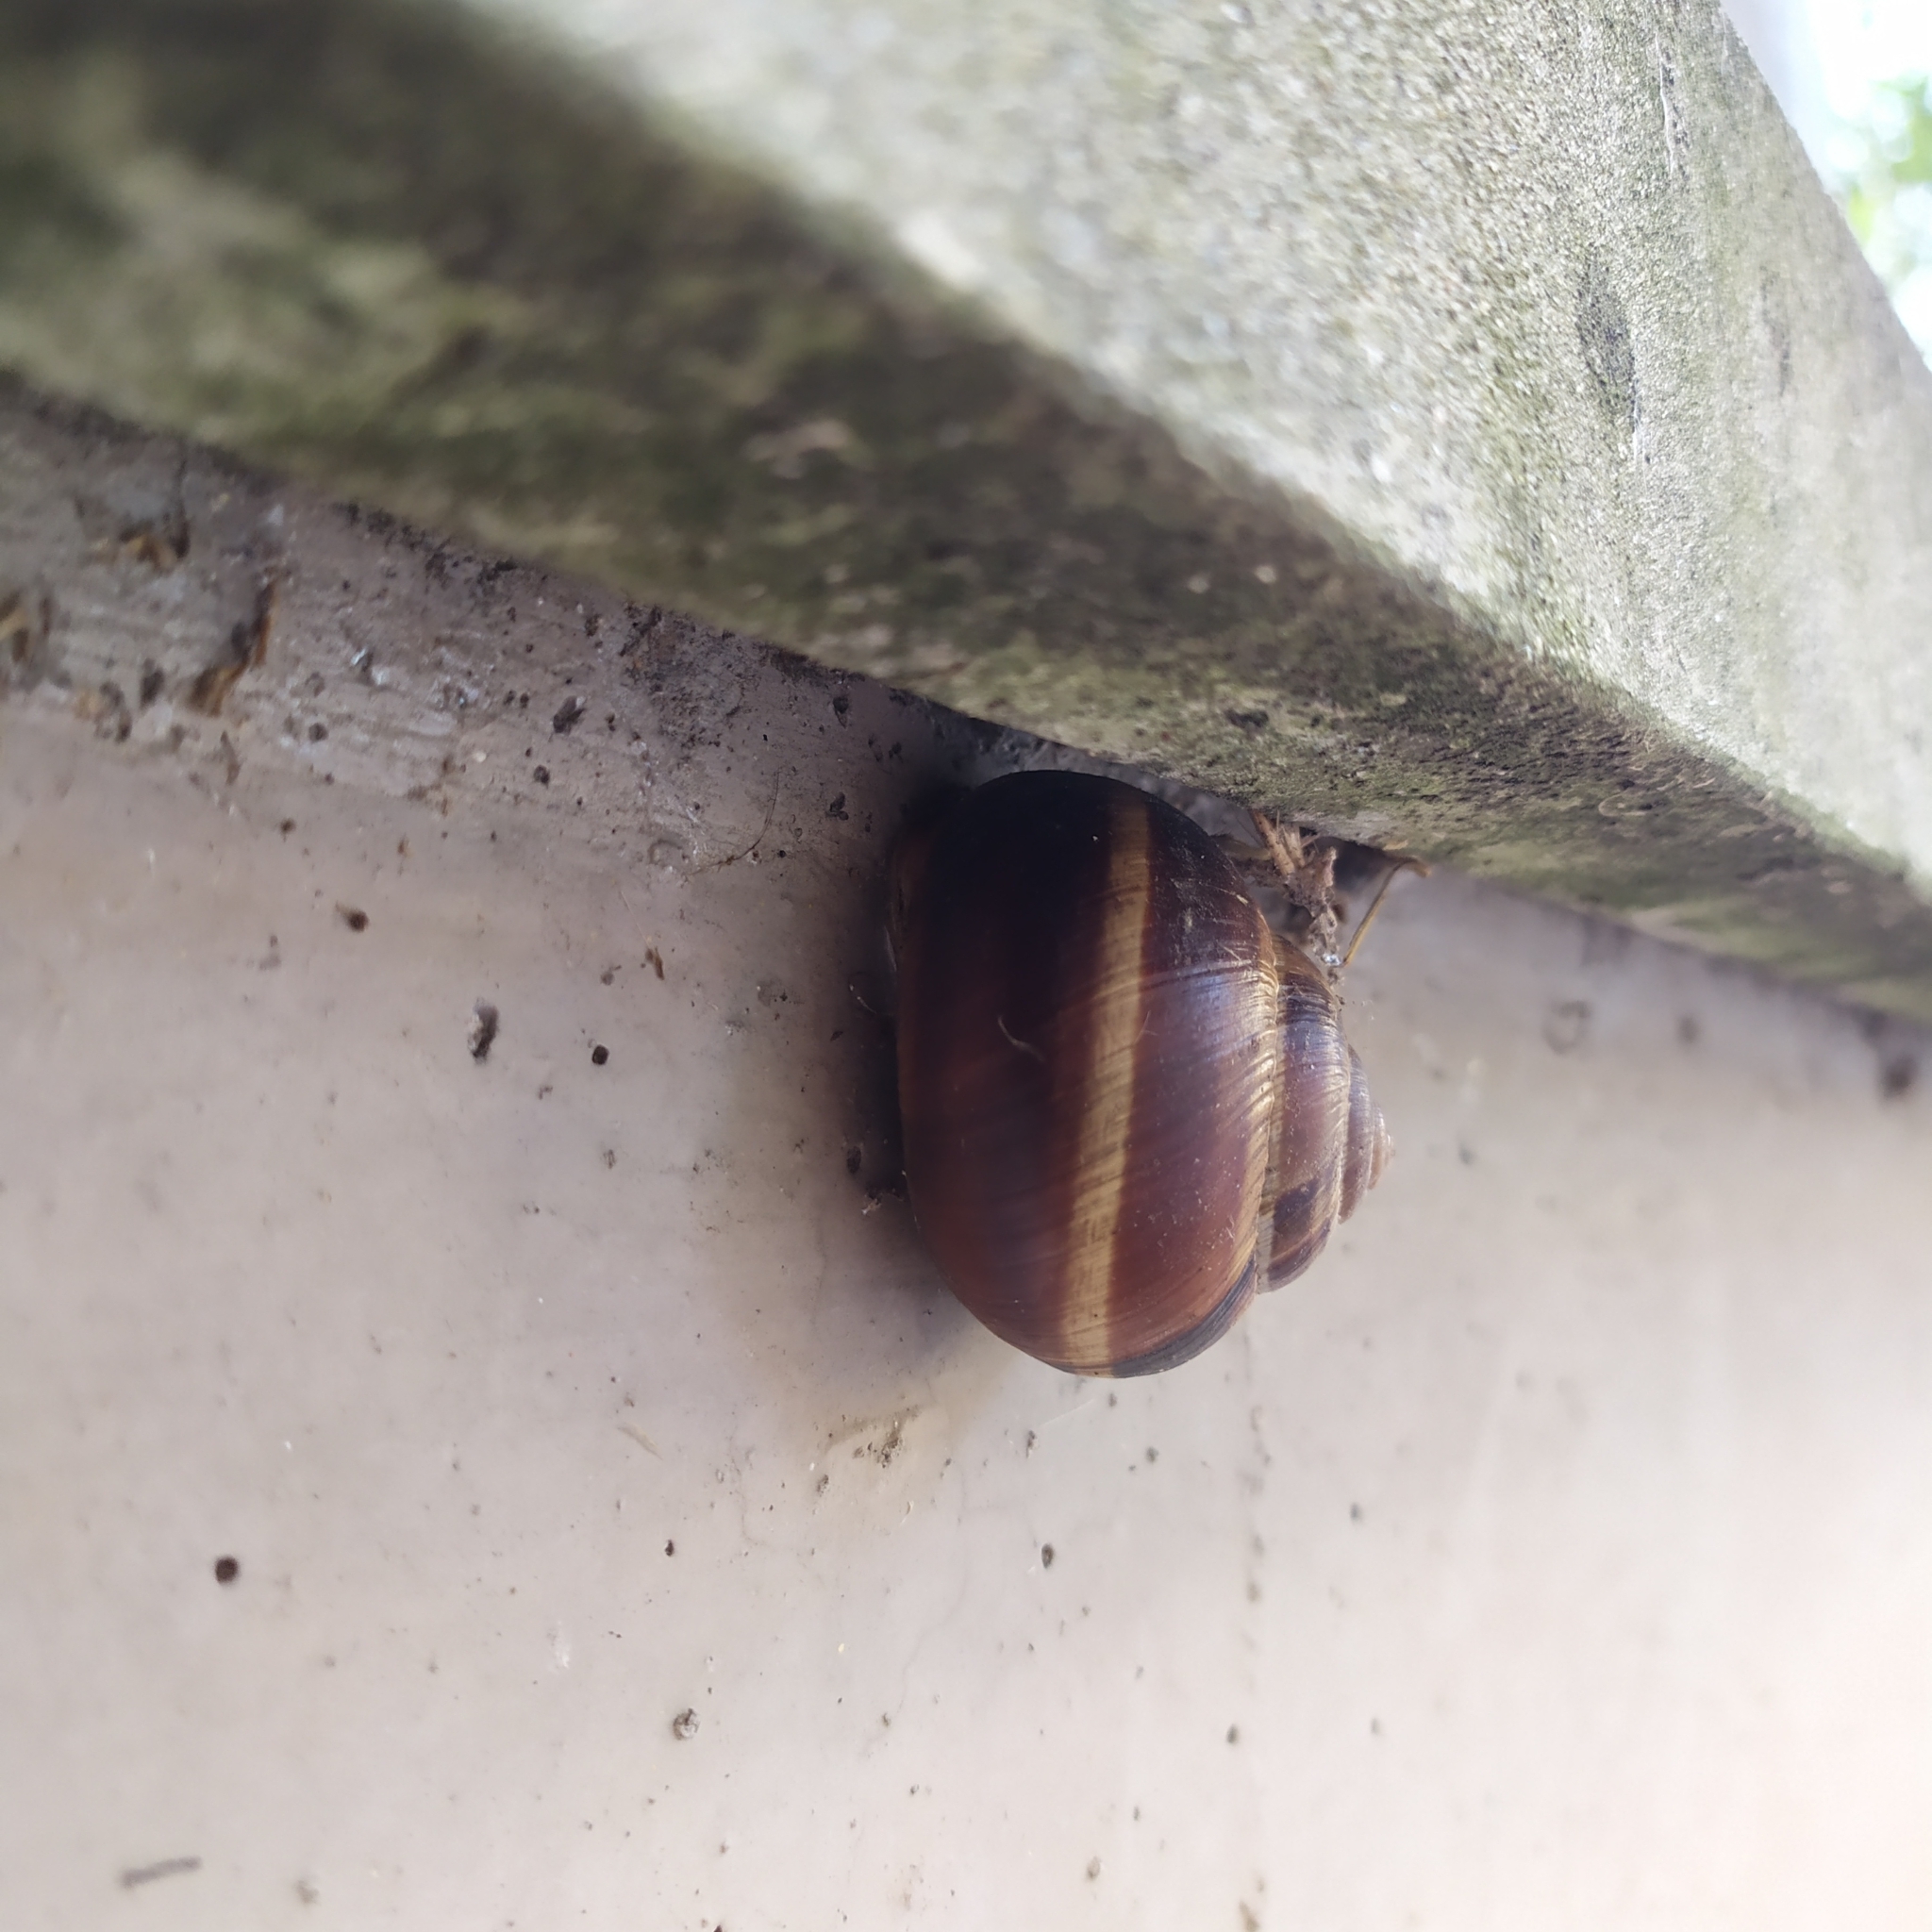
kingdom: Animalia
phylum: Mollusca
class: Gastropoda
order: Stylommatophora
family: Helicidae
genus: Helix
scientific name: Helix lucorum
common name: Turkish snail
